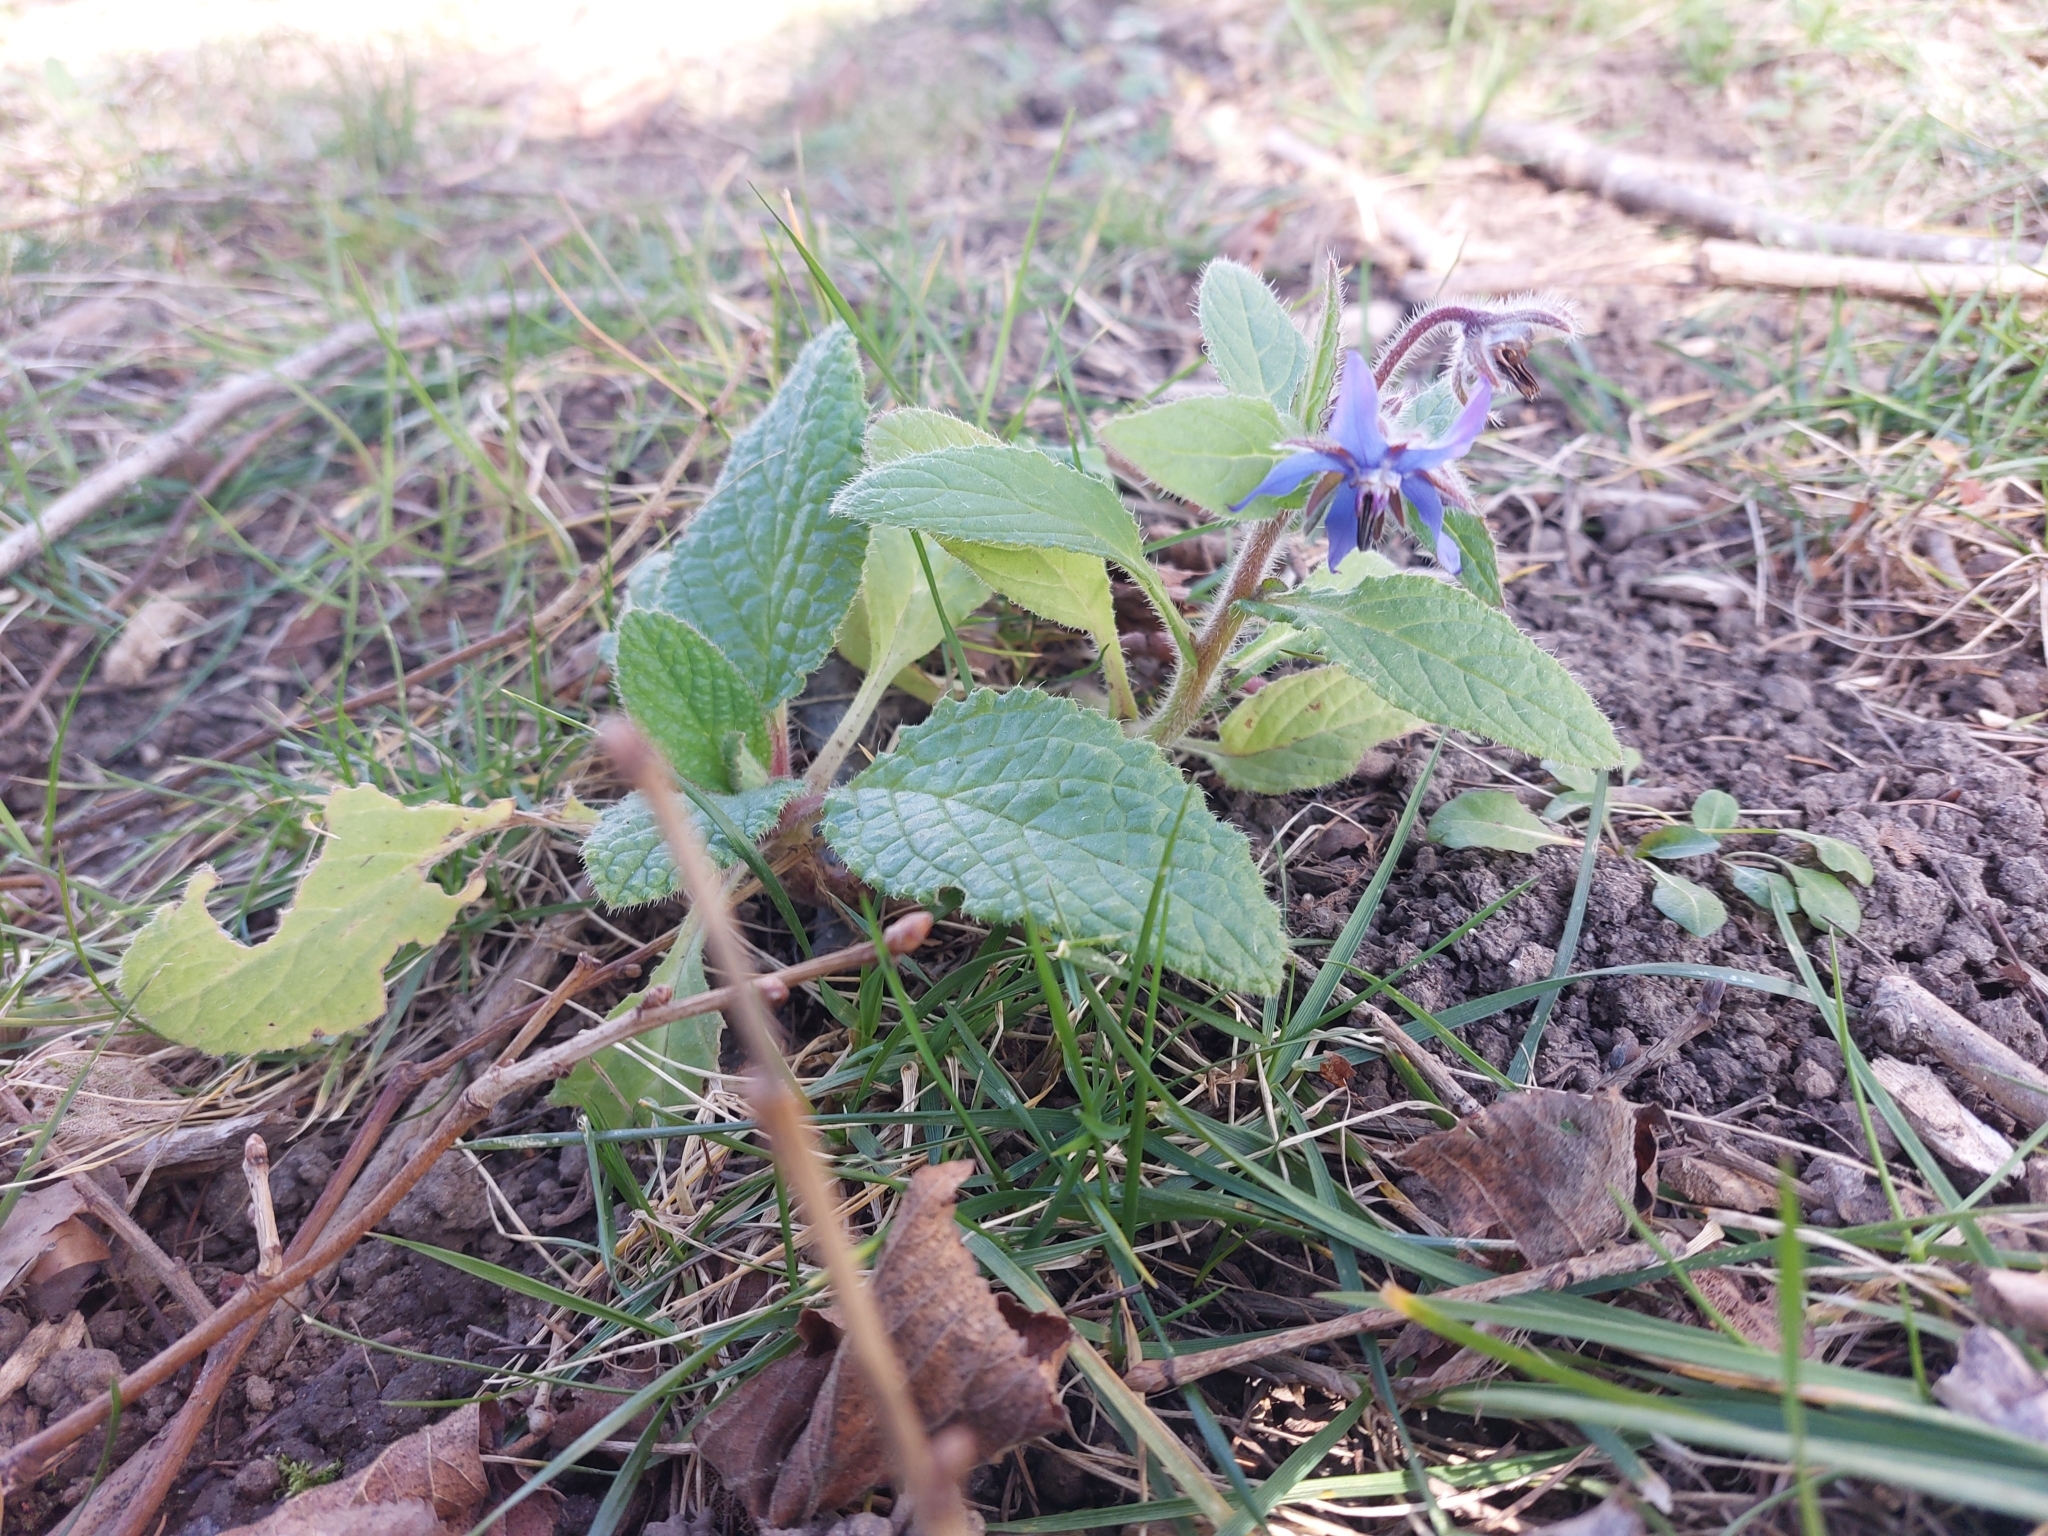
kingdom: Plantae
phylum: Tracheophyta
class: Magnoliopsida
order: Boraginales
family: Boraginaceae
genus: Borago
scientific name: Borago officinalis
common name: Borage
